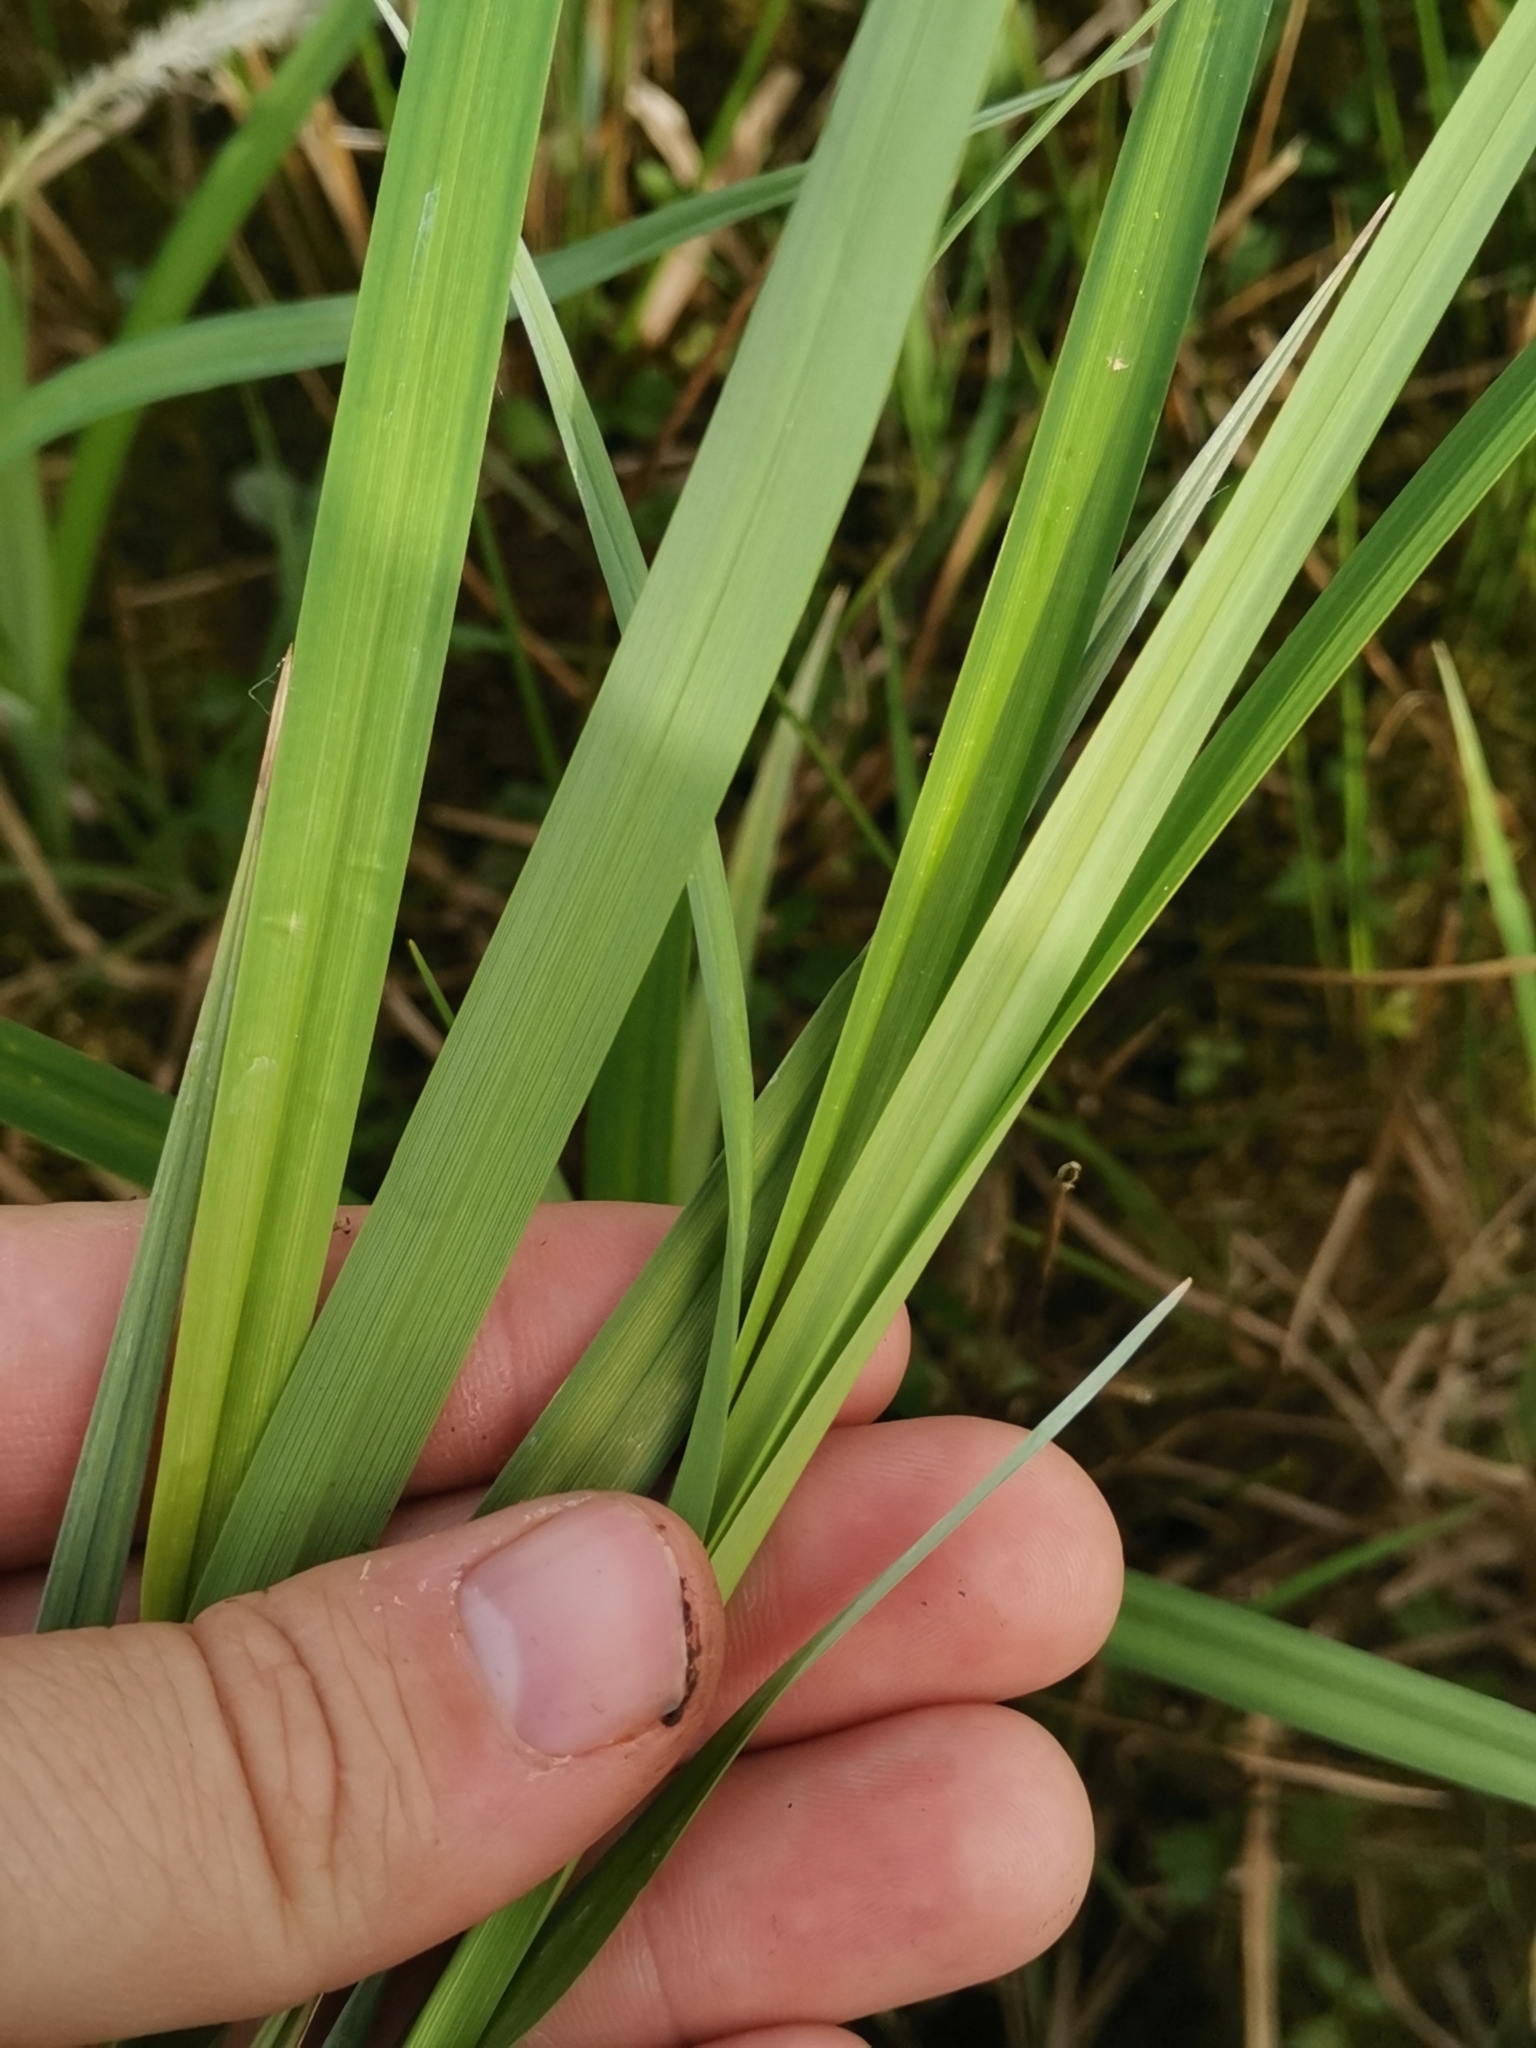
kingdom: Plantae
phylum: Tracheophyta
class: Liliopsida
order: Poales
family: Cyperaceae
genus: Carex
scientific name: Carex acuta
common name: Slender tufted-sedge
